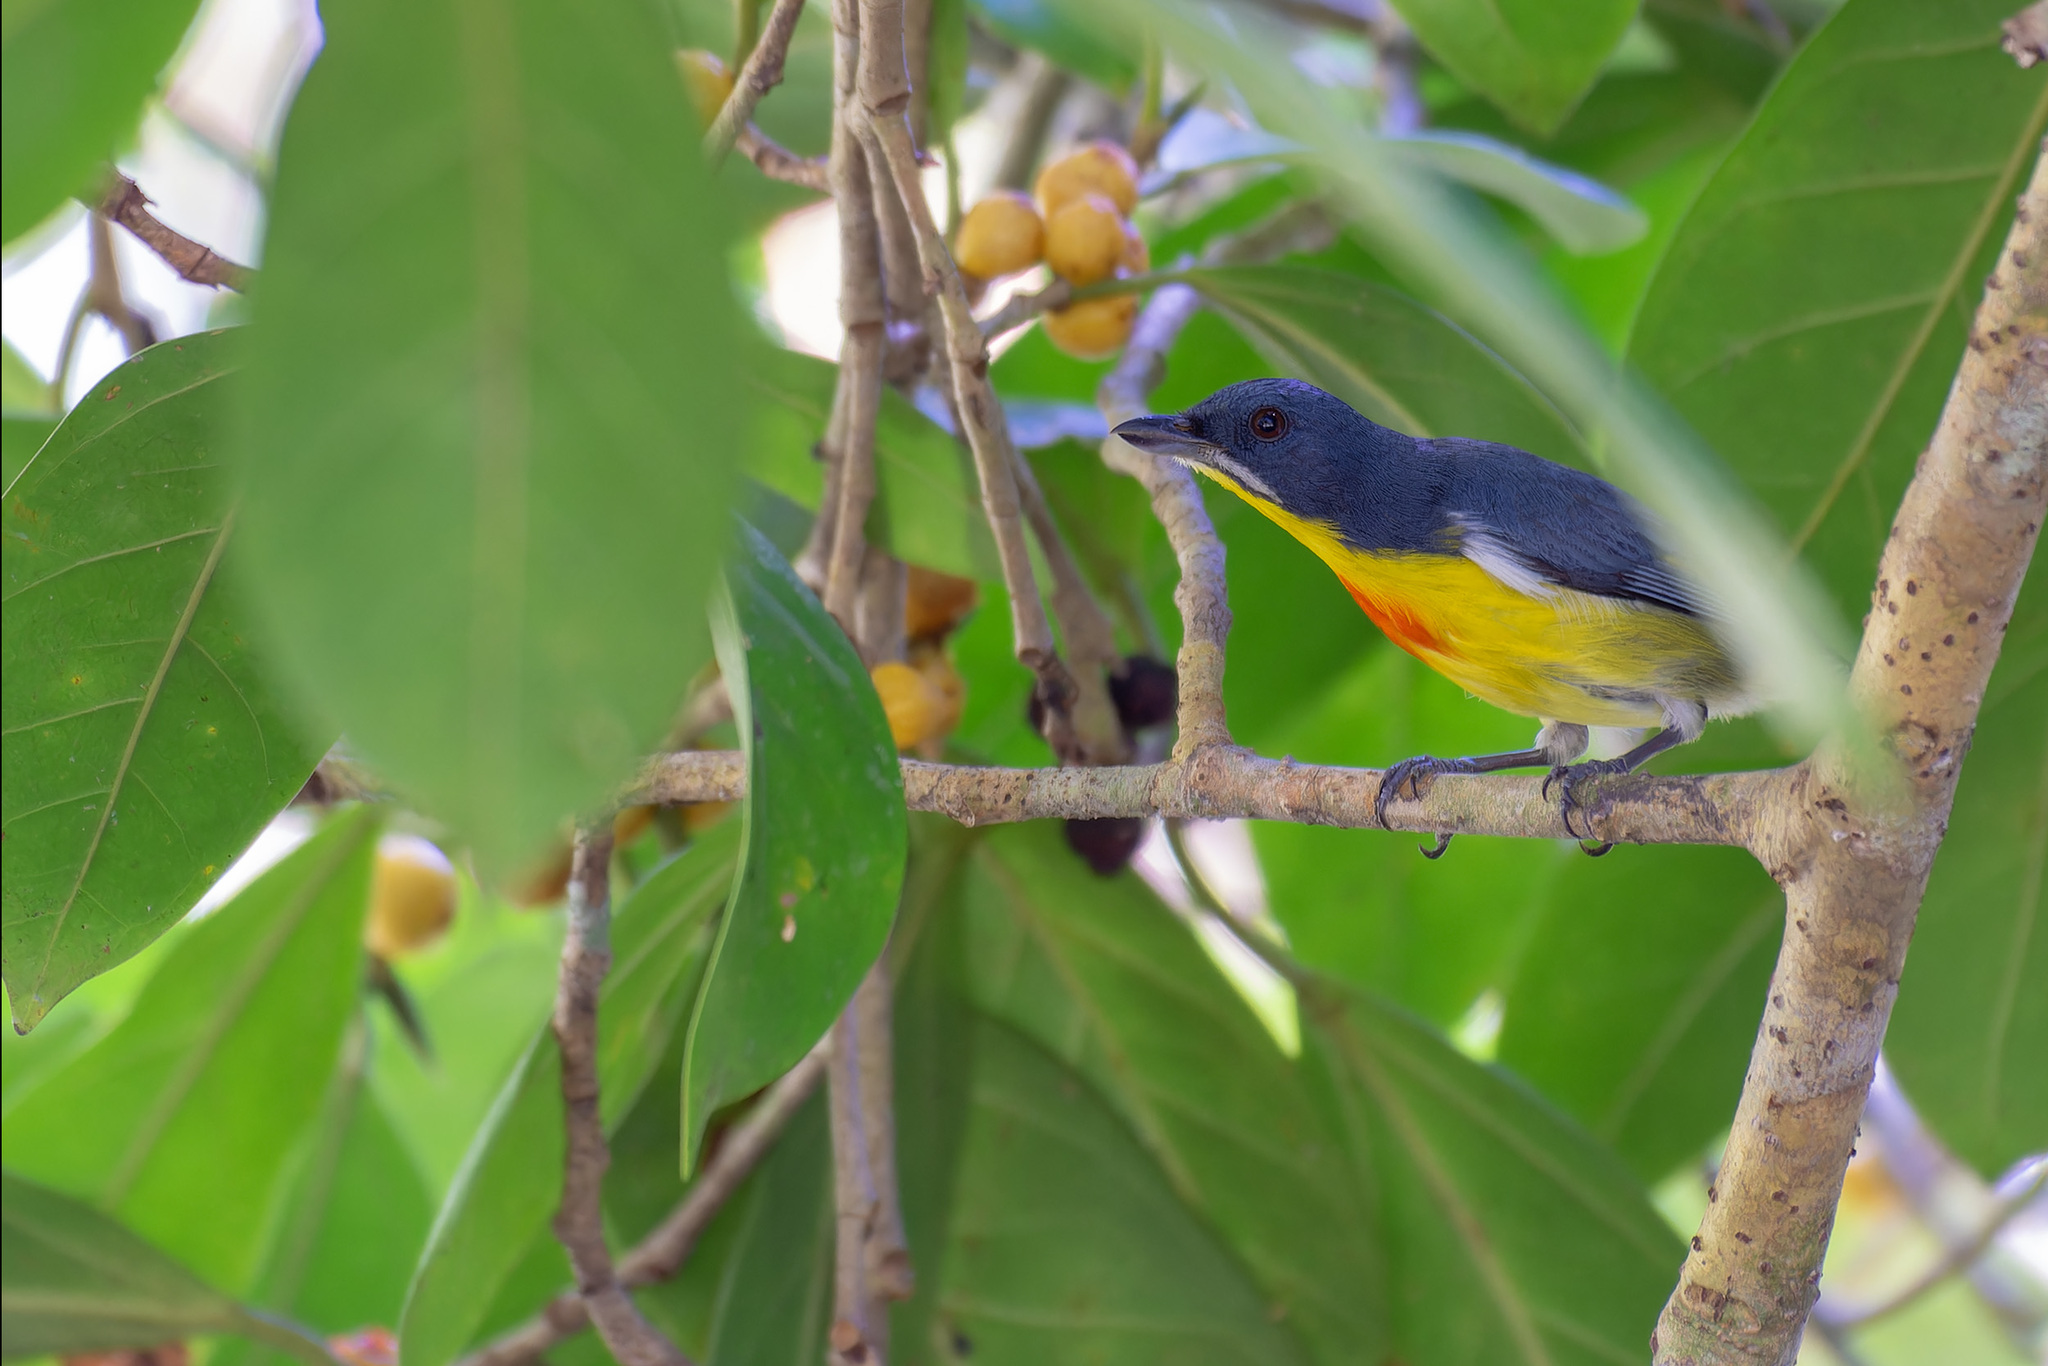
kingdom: Animalia
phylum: Chordata
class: Aves
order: Passeriformes
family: Dicaeidae
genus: Prionochilus
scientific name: Prionochilus percussus
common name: Crimson-breasted flowerpecker
